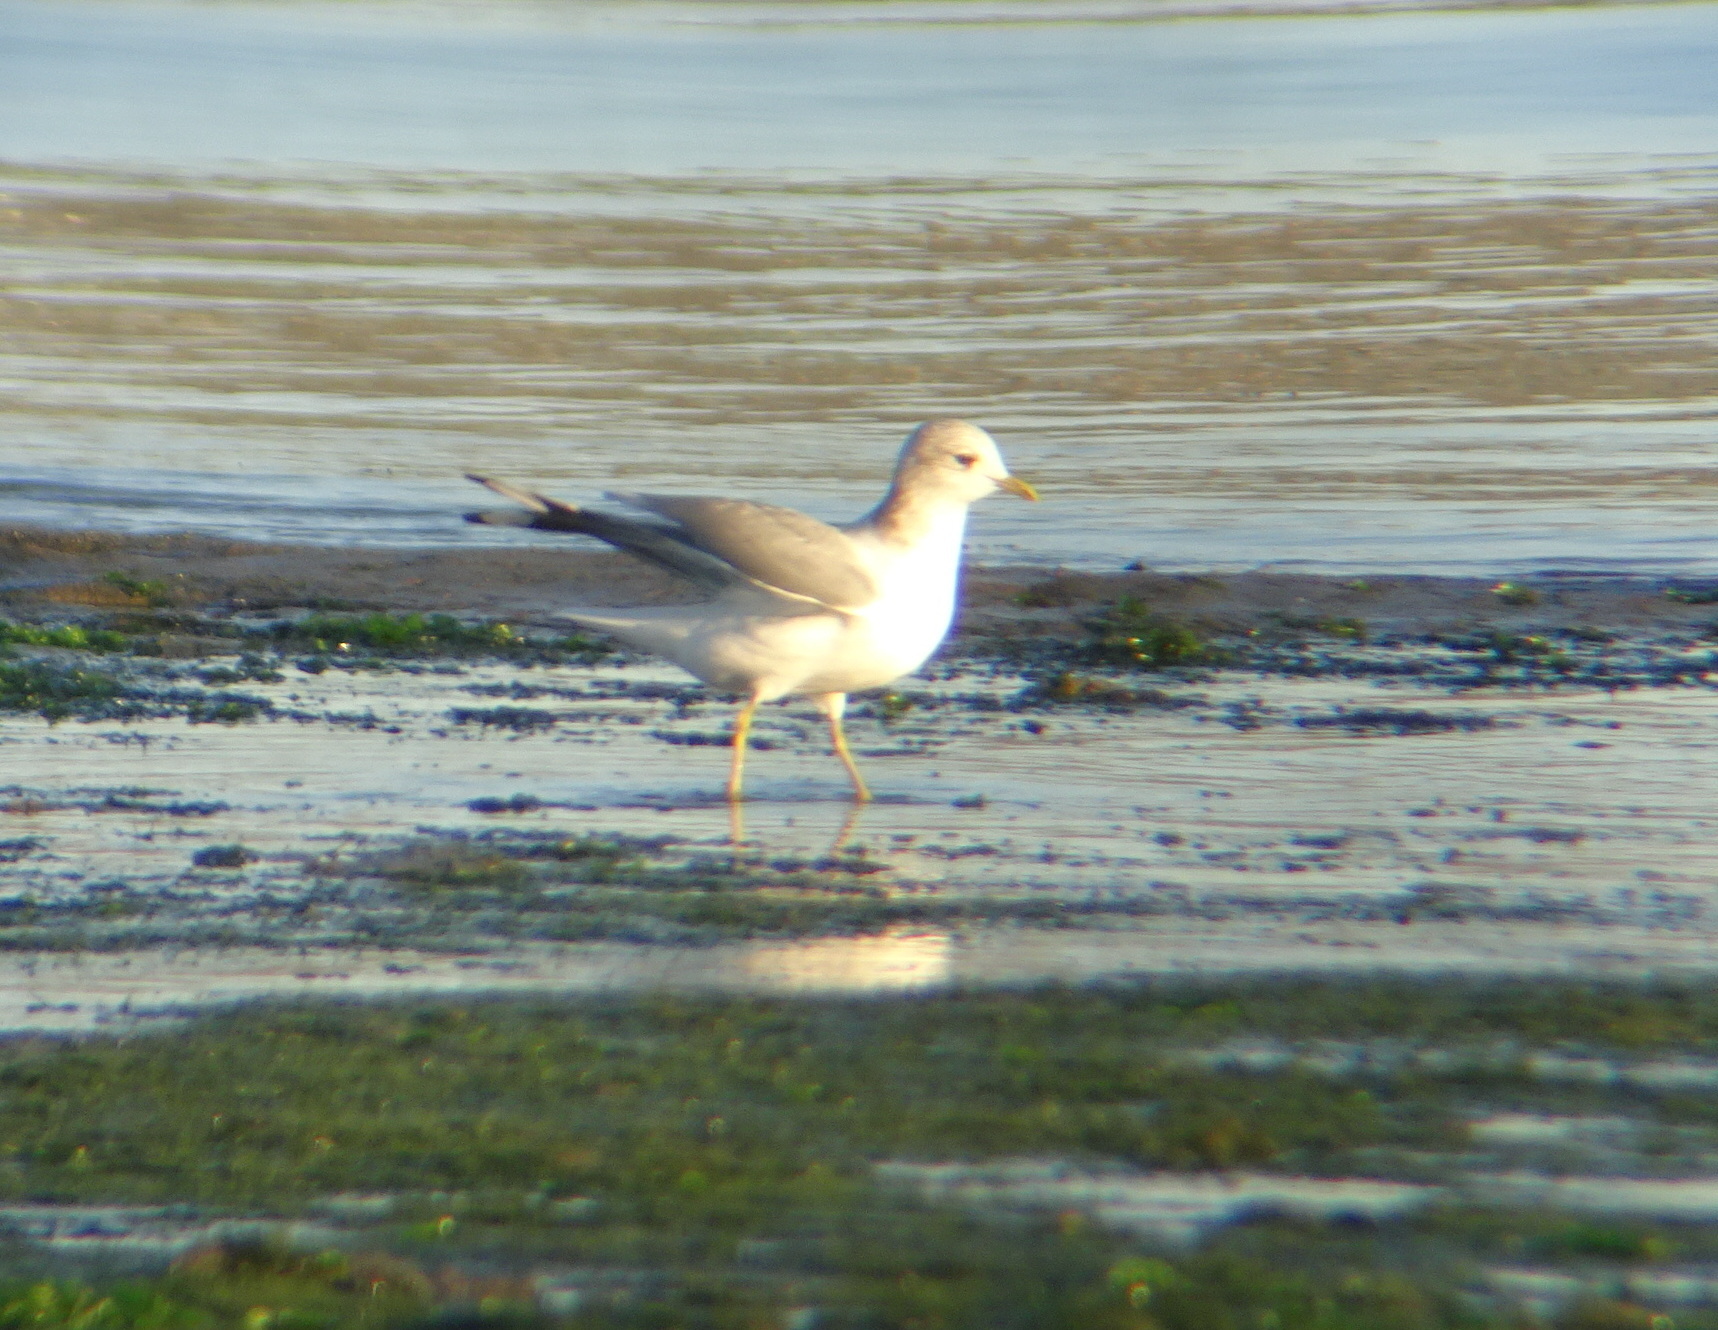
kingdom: Animalia
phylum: Chordata
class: Aves
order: Charadriiformes
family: Laridae
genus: Larus
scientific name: Larus brachyrhynchus
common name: Short-billed gull
